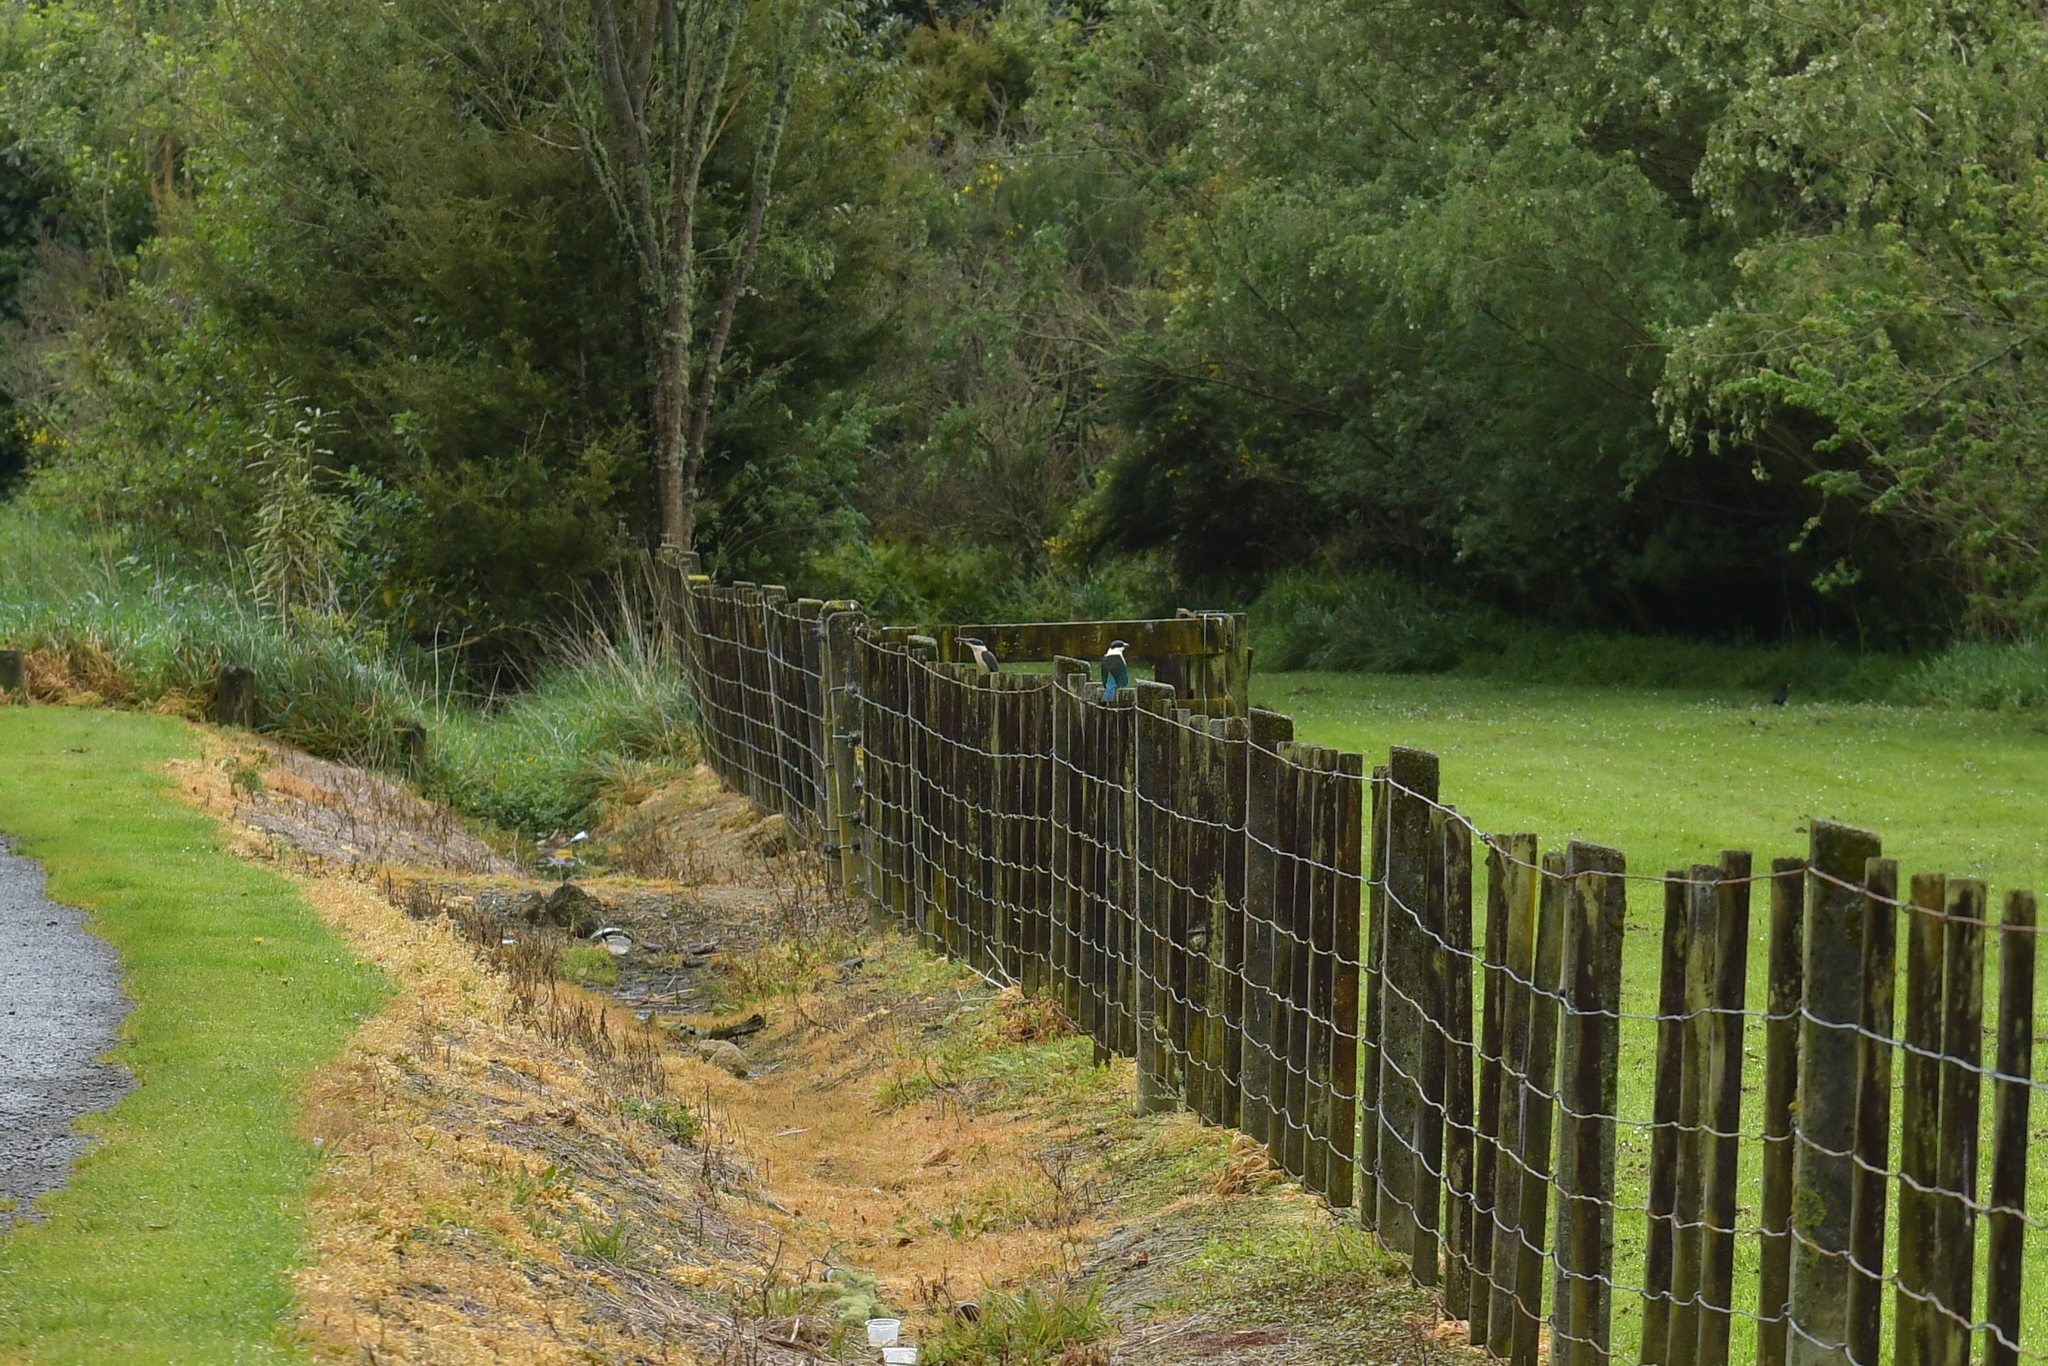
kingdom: Animalia
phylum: Chordata
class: Aves
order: Coraciiformes
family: Alcedinidae
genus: Todiramphus
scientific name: Todiramphus sanctus
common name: Sacred kingfisher
